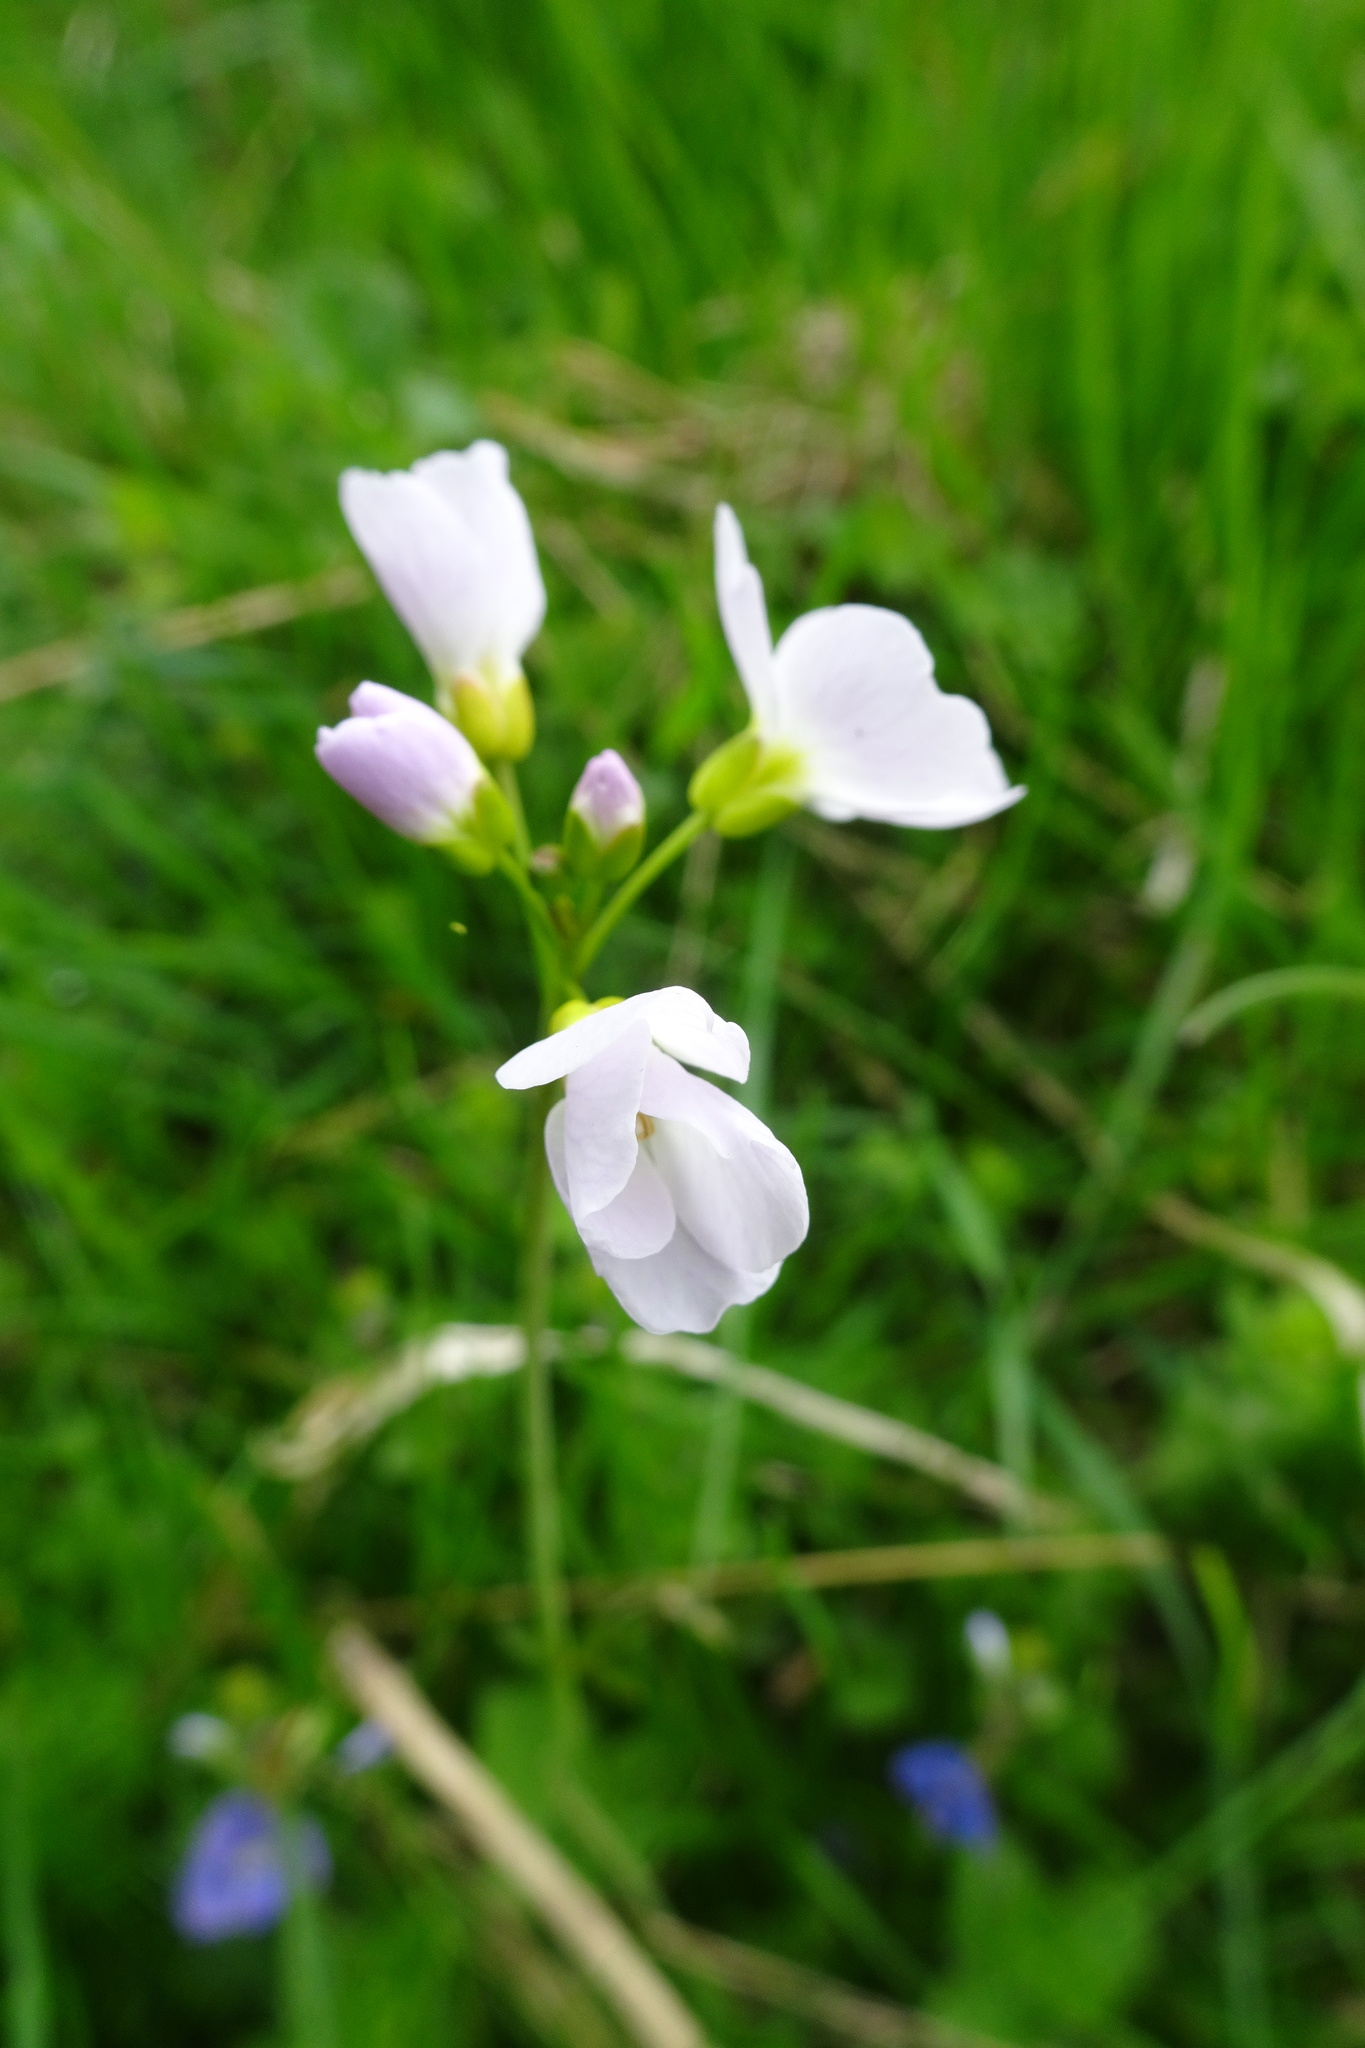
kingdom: Plantae
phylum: Tracheophyta
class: Magnoliopsida
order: Brassicales
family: Brassicaceae
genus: Cardamine
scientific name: Cardamine pratensis
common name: Cuckoo flower
